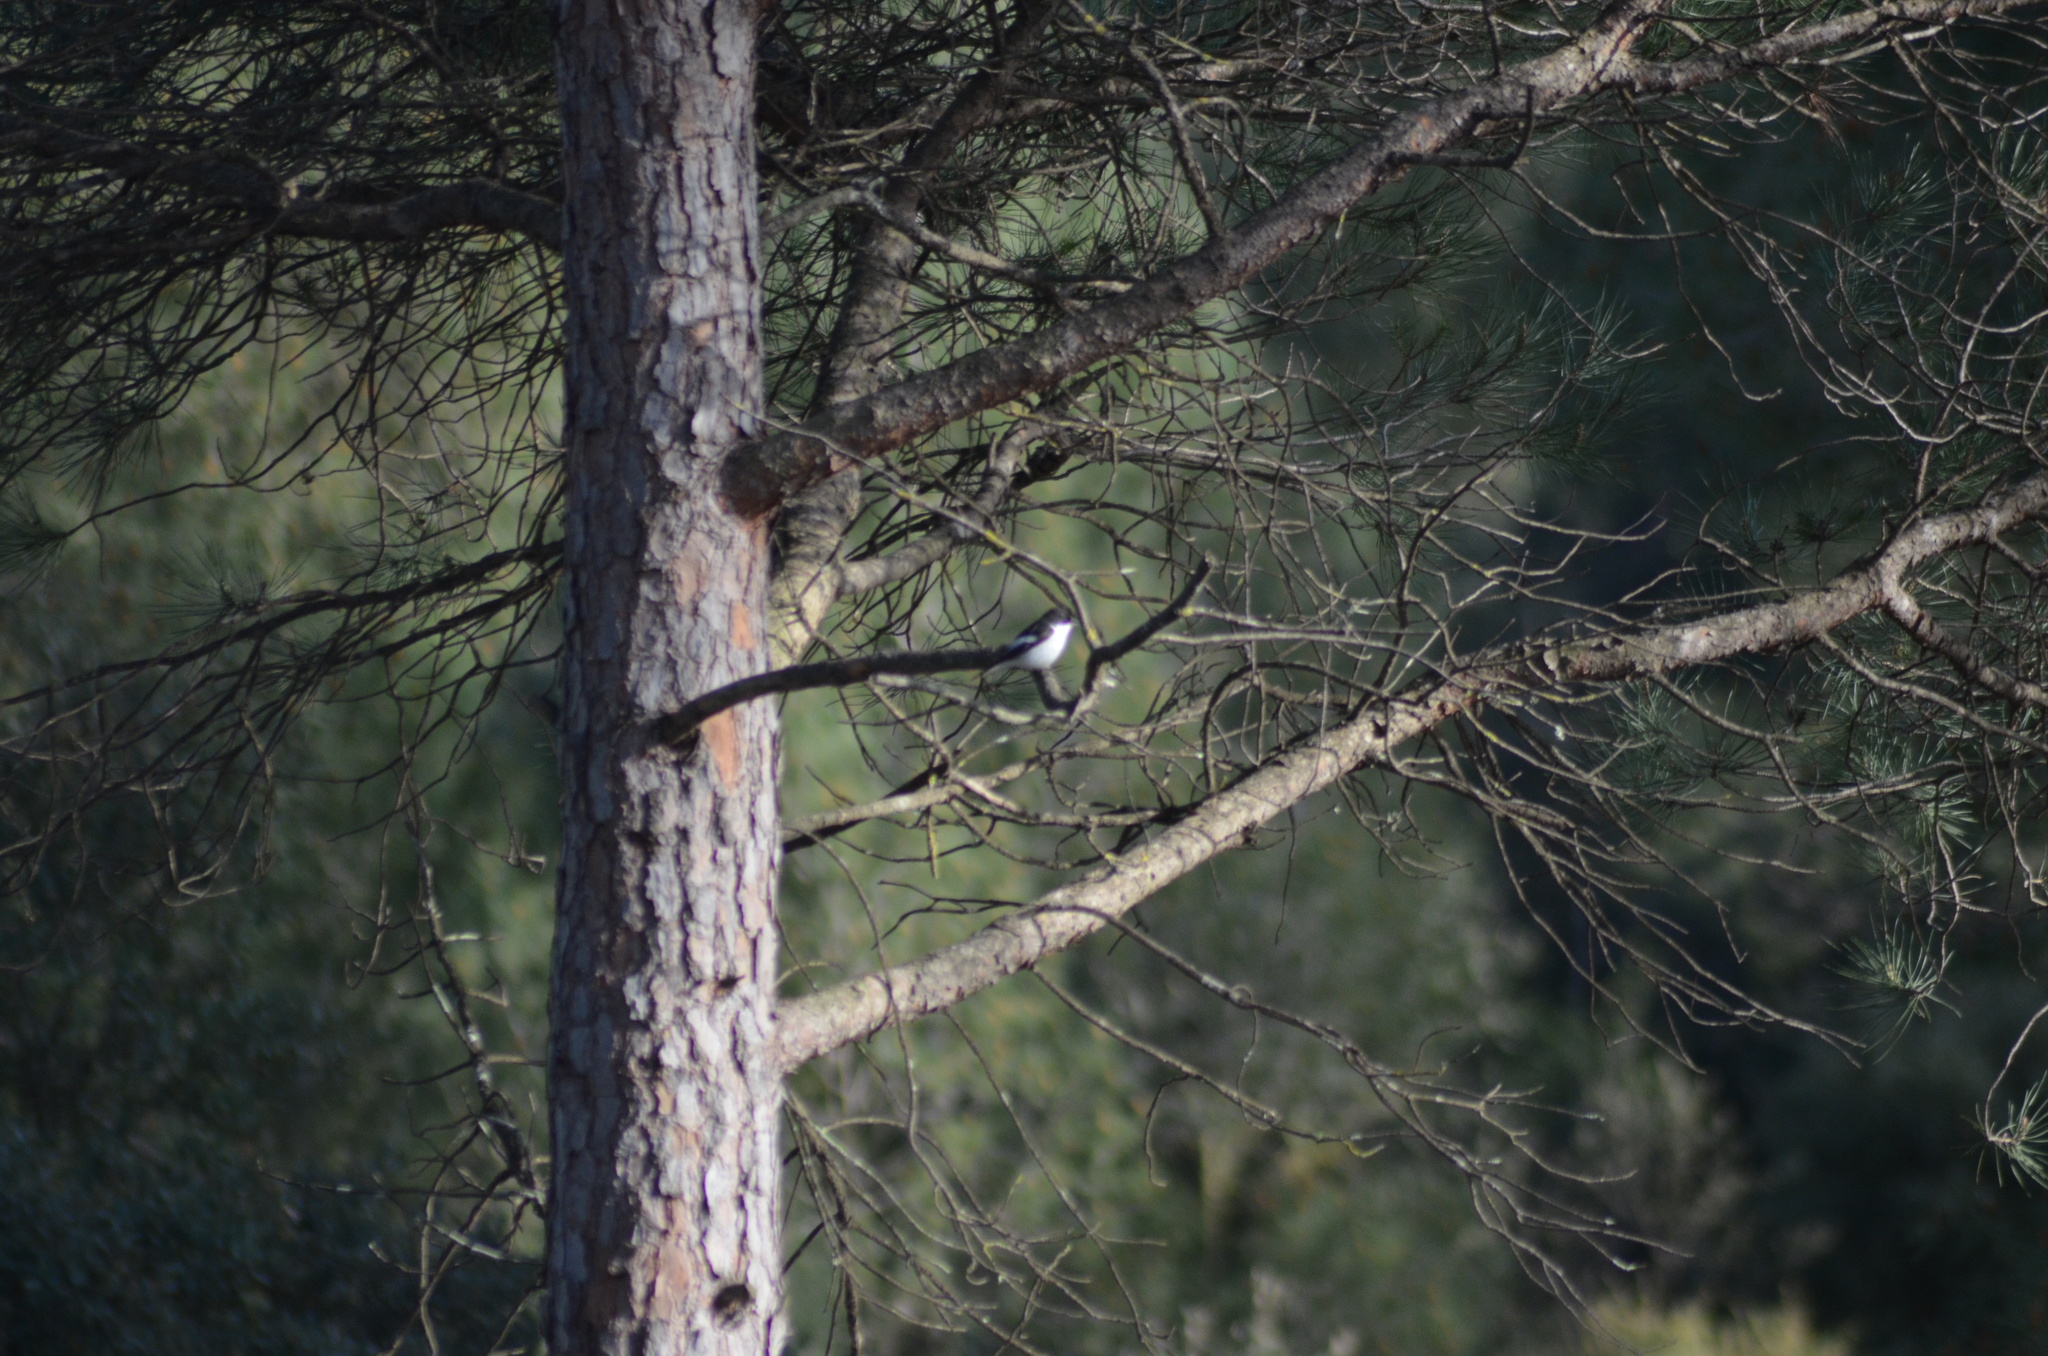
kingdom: Animalia
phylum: Chordata
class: Aves
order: Passeriformes
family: Muscicapidae
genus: Ficedula
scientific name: Ficedula hypoleuca
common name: European pied flycatcher
